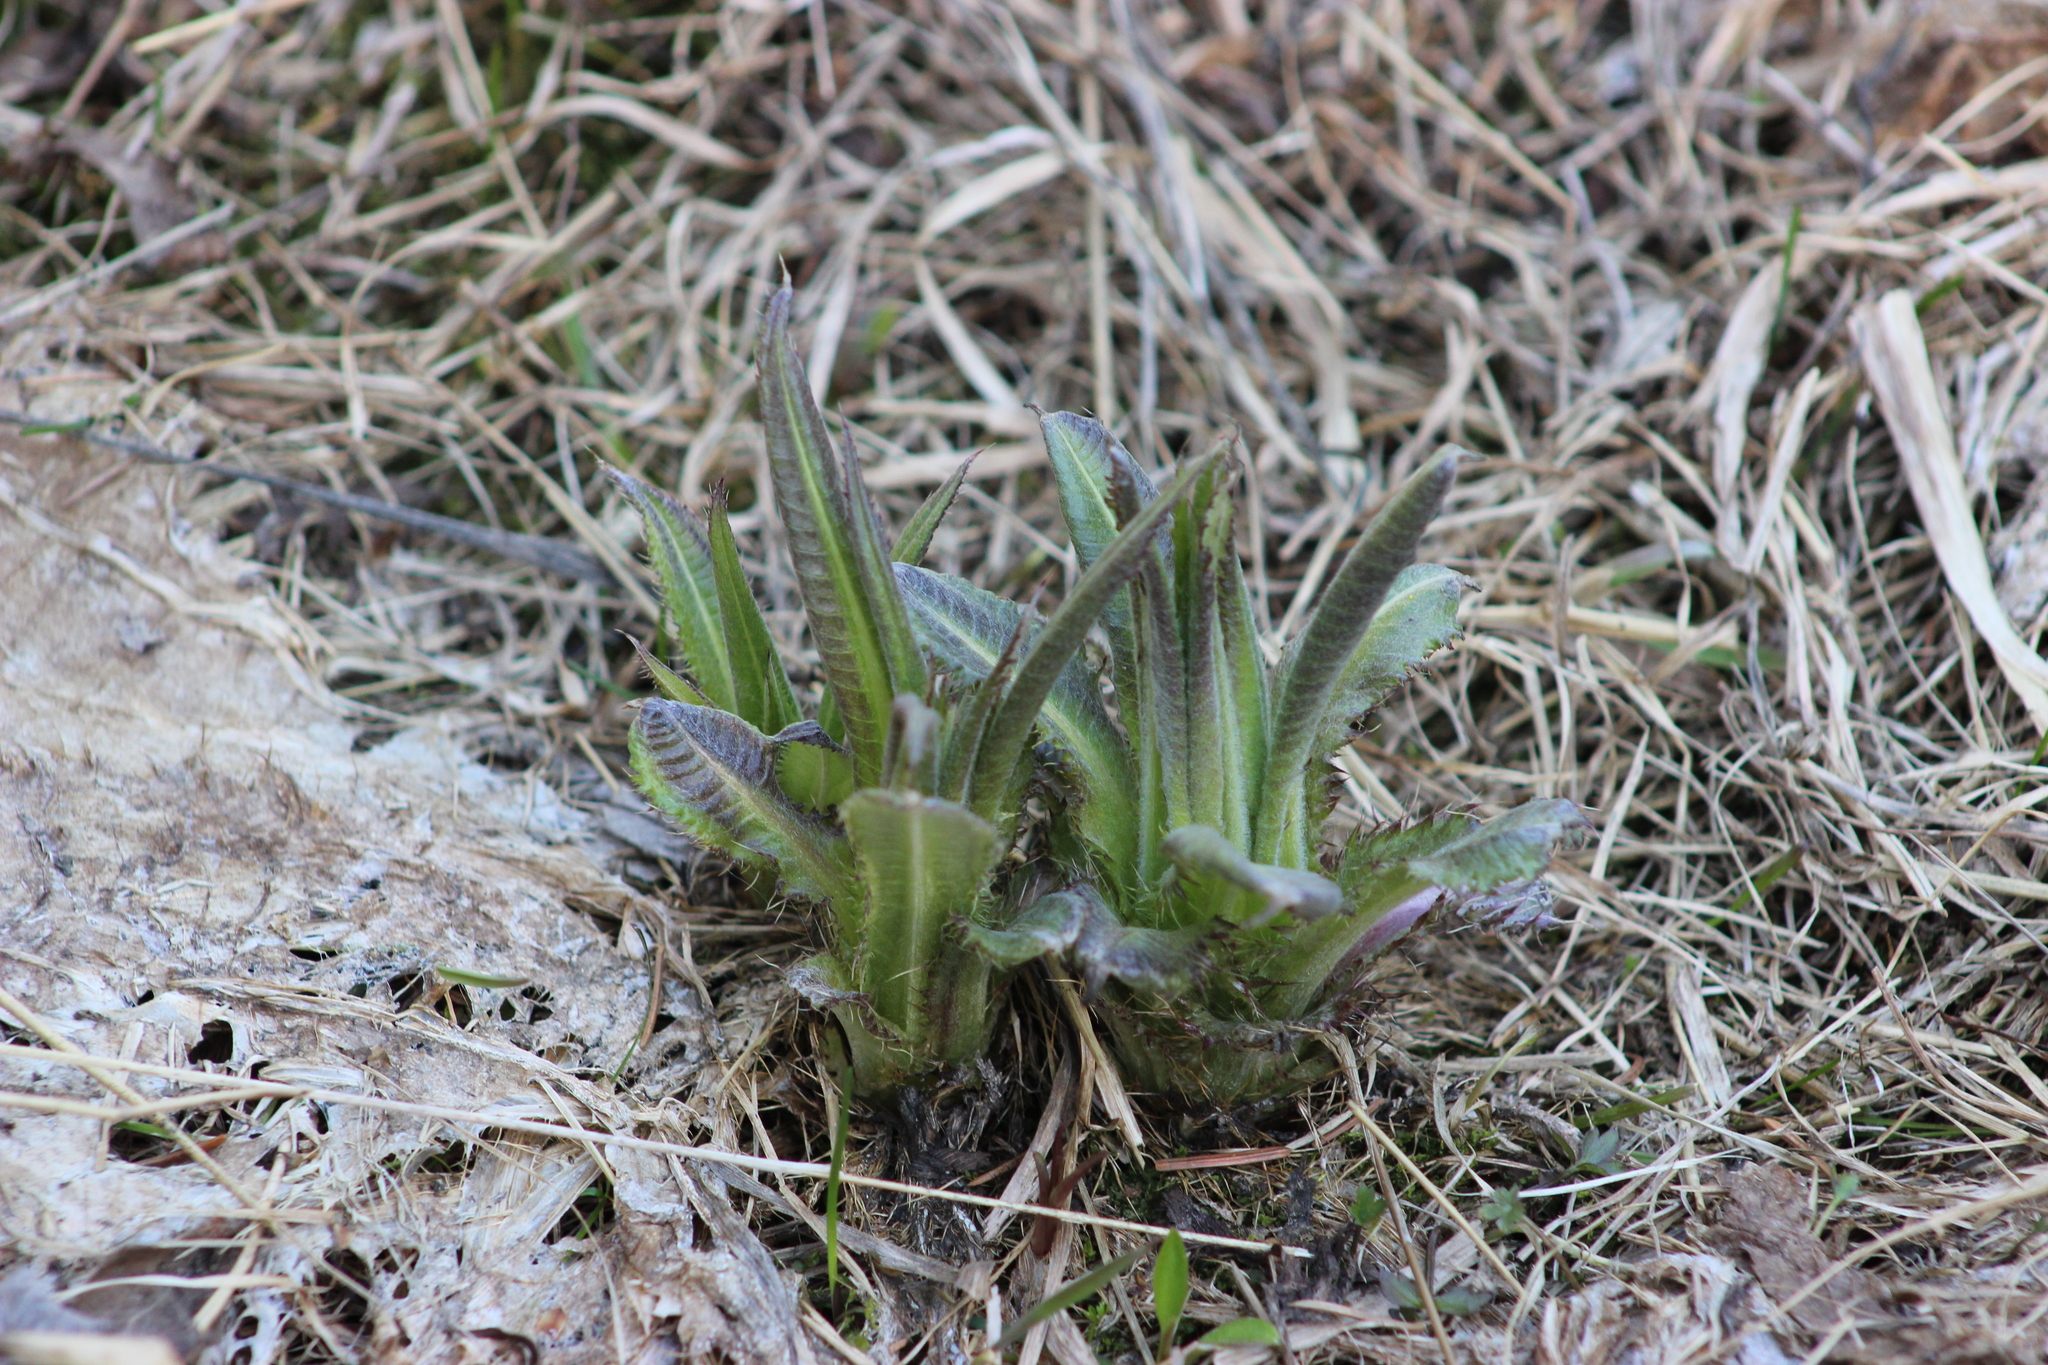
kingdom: Plantae
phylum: Tracheophyta
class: Magnoliopsida
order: Asterales
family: Asteraceae
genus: Cirsium
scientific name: Cirsium heterophyllum
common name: Melancholy thistle
